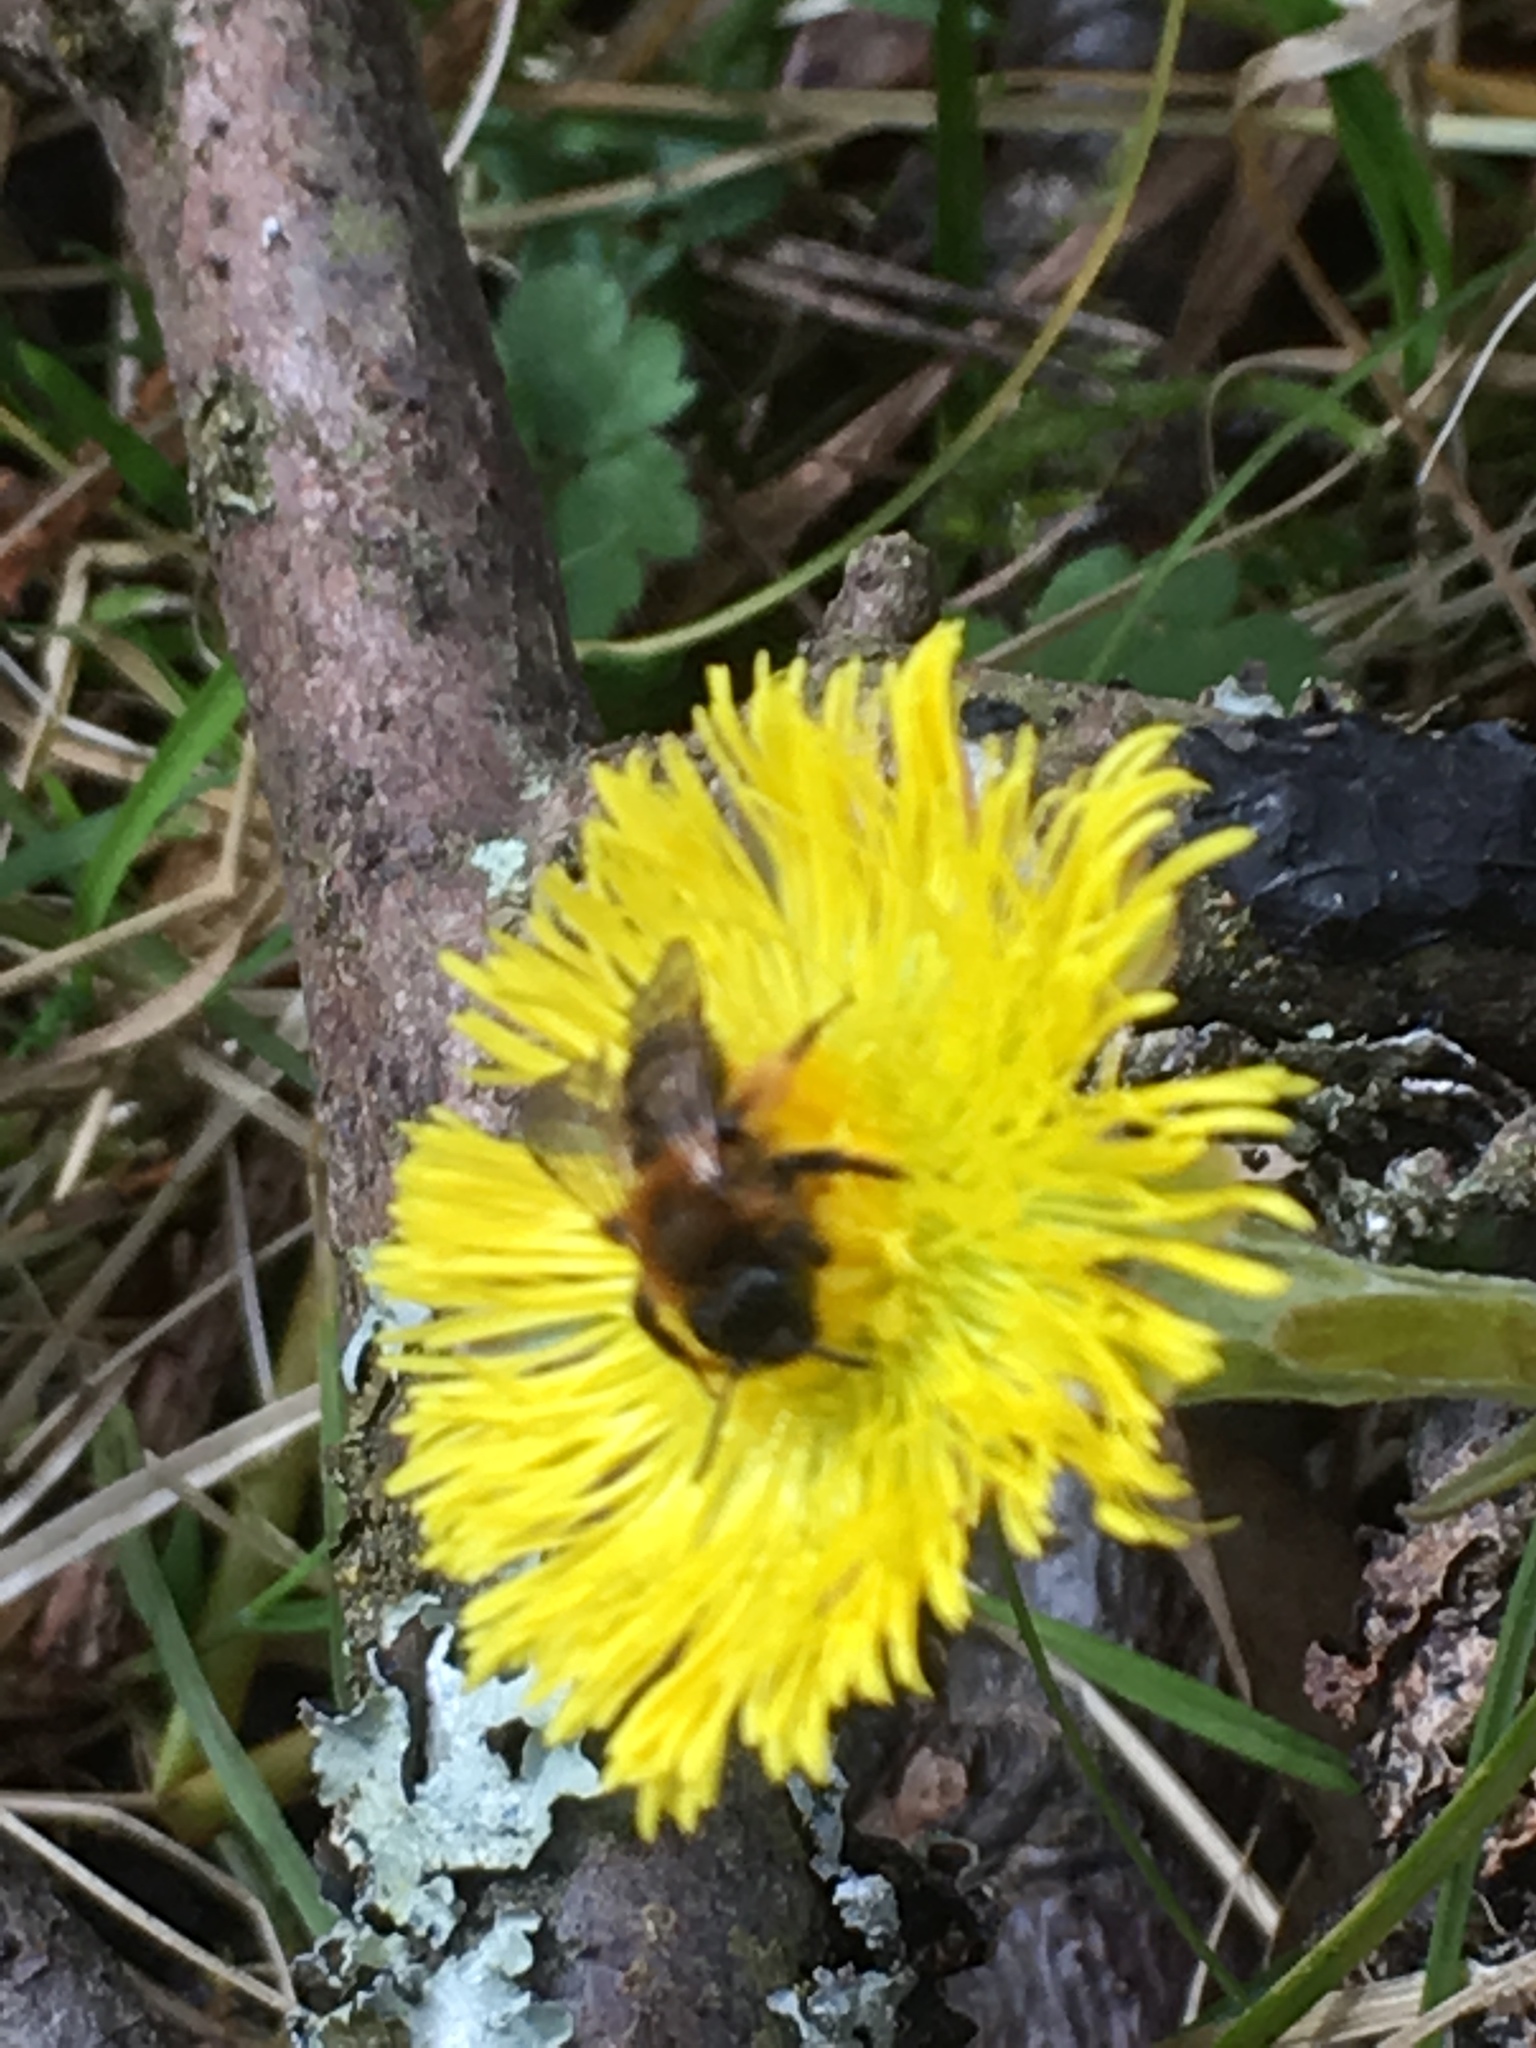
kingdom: Animalia
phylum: Arthropoda
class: Insecta
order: Hymenoptera
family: Andrenidae
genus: Andrena
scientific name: Andrena clarkella
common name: Clarke's mining bee
